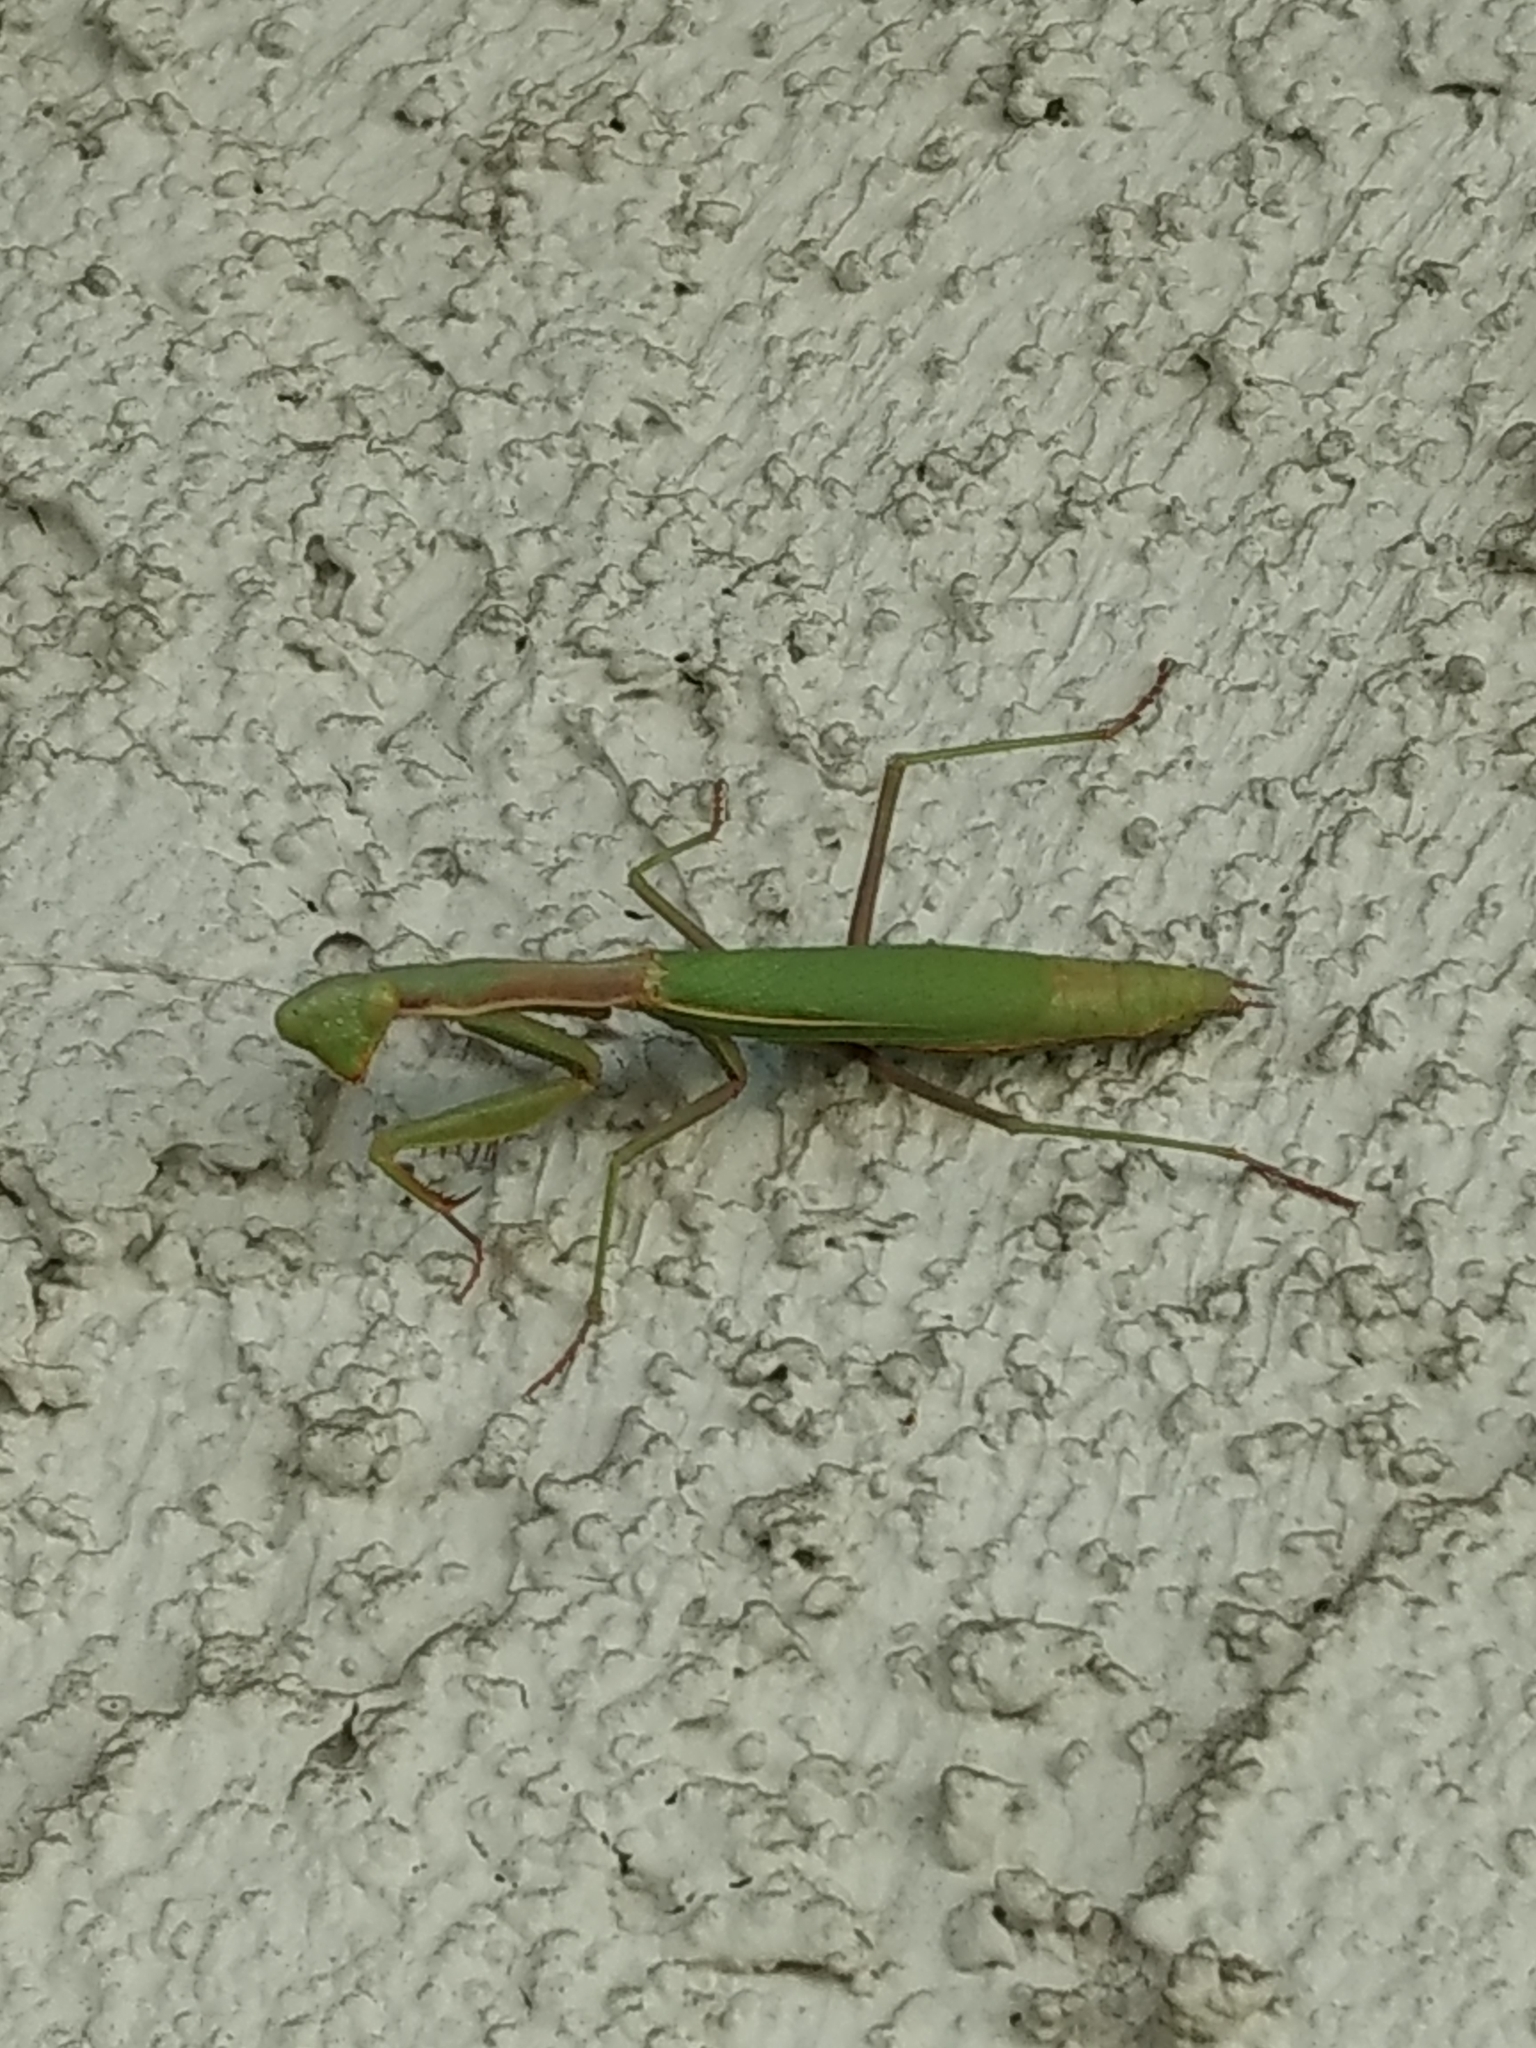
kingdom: Animalia
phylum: Arthropoda
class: Insecta
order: Mantodea
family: Eremiaphilidae
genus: Iris
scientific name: Iris oratoria
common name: Mediterranean mantis
